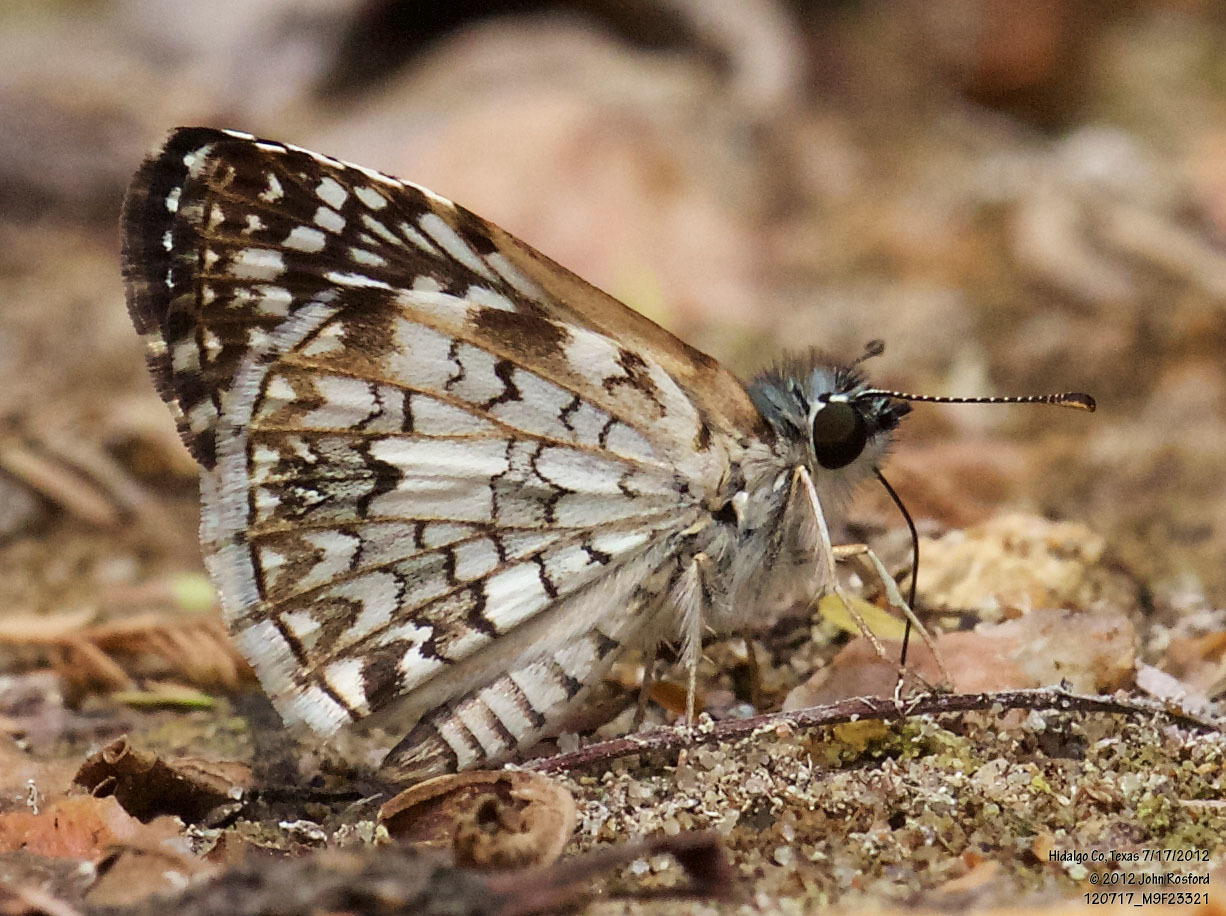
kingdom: Animalia
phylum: Arthropoda
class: Insecta
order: Lepidoptera
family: Hesperiidae
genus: Pyrgus
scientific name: Pyrgus oileus
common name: Tropical checkered-skipper
